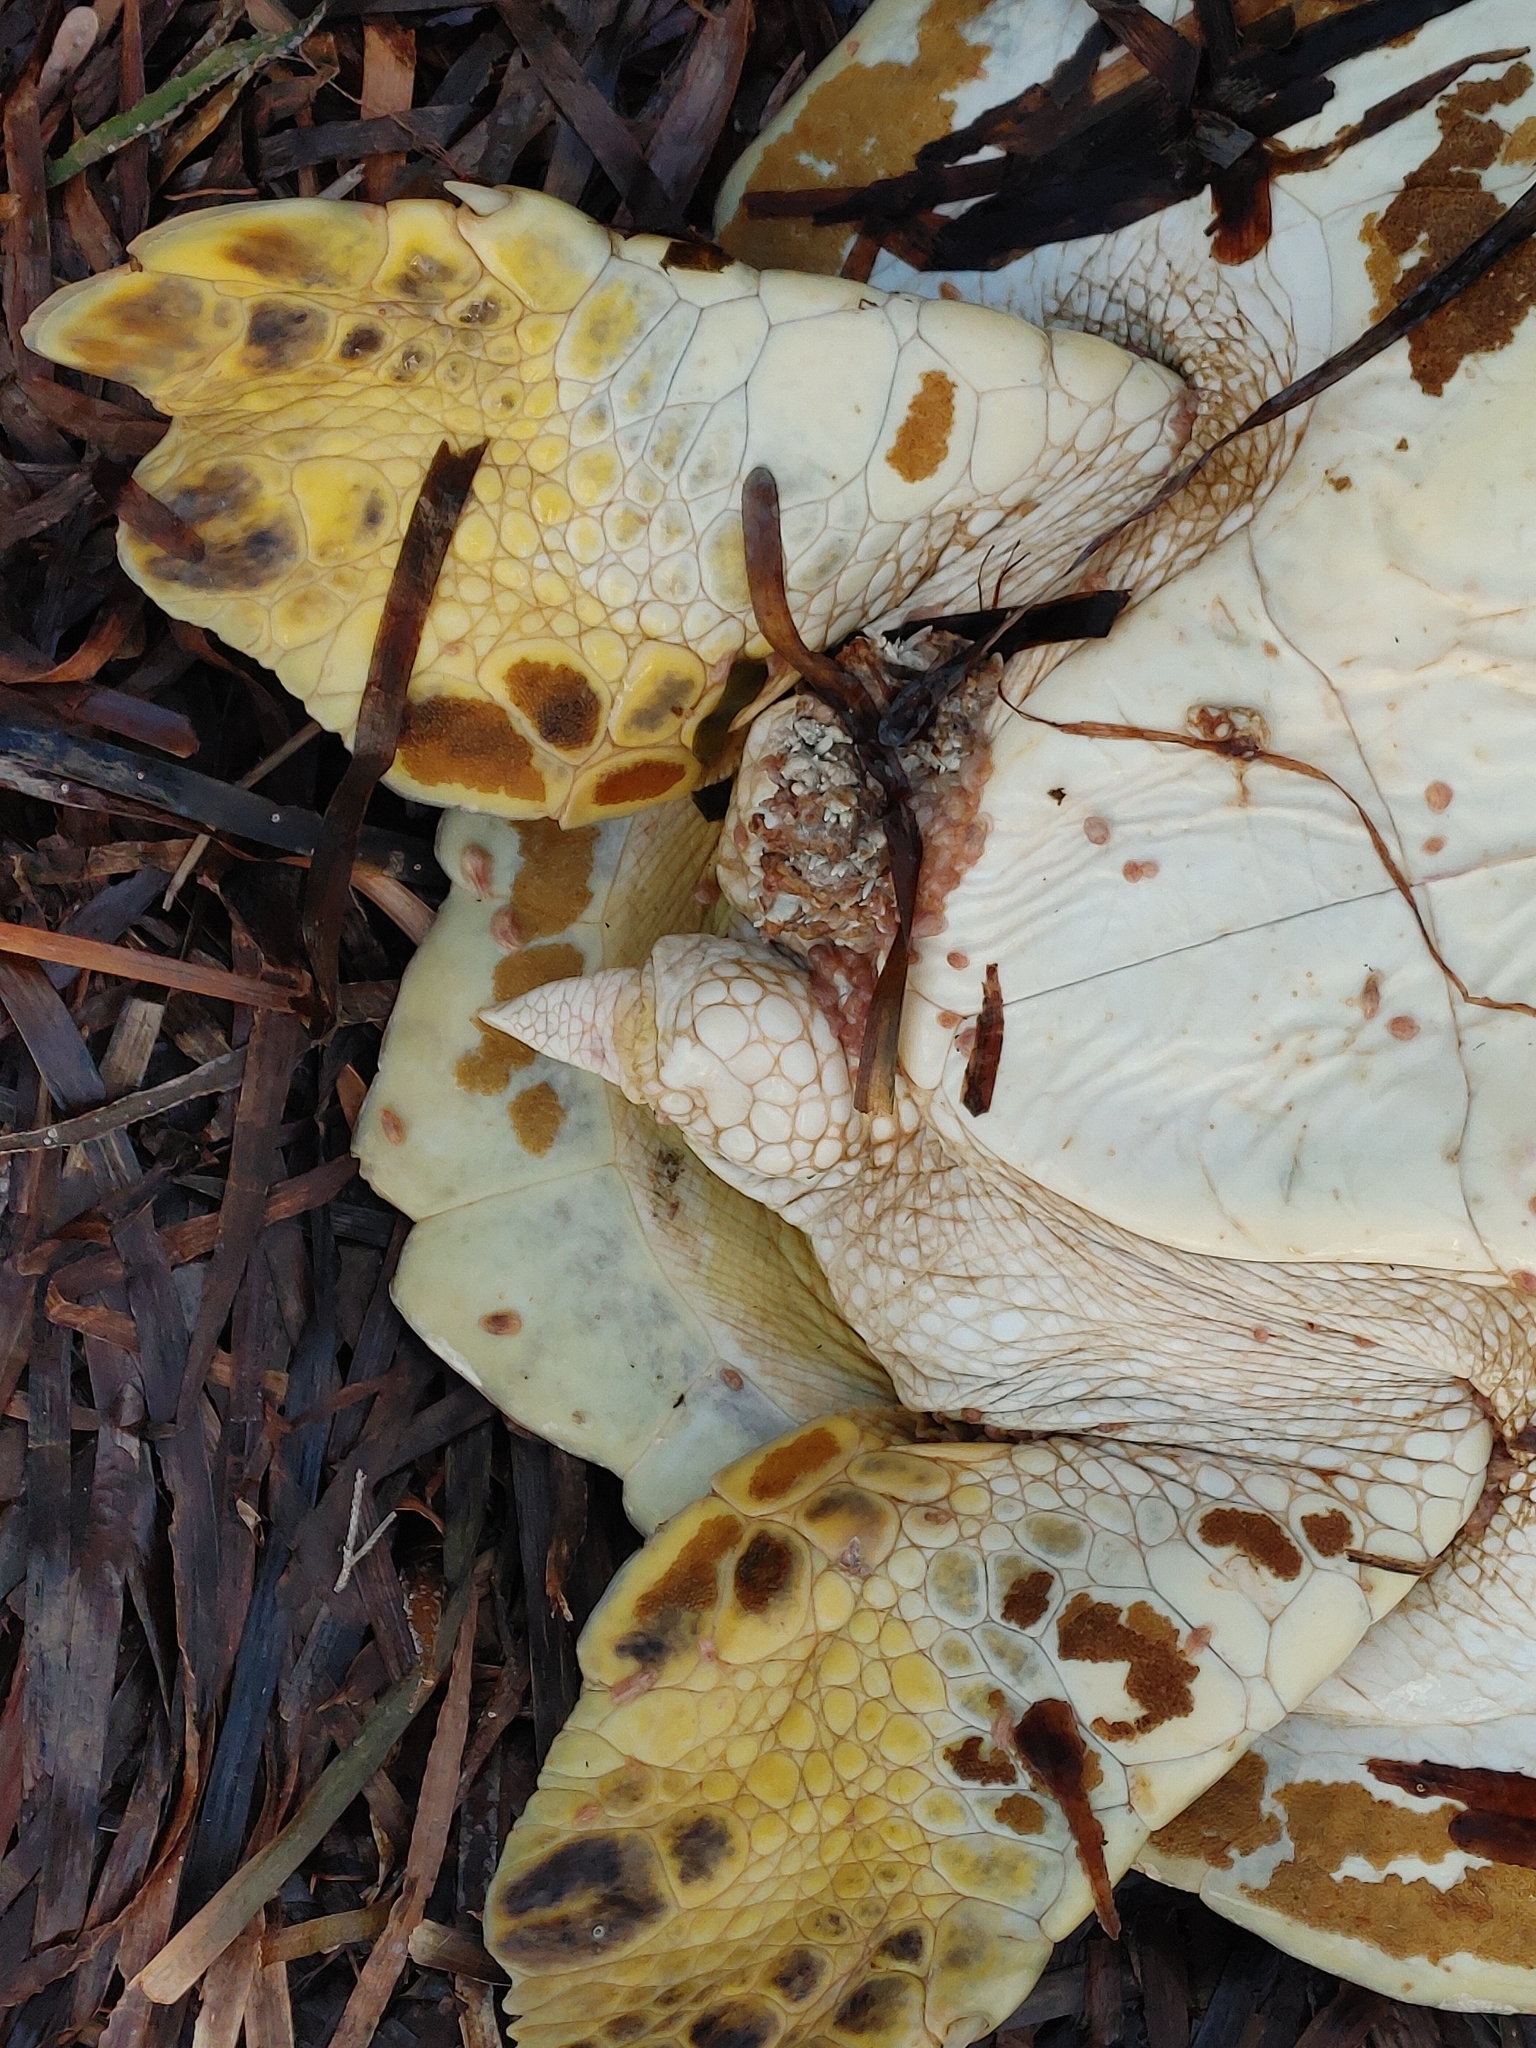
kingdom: Viruses
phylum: Peploviricota
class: Herviviricetes
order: Herpesvirales
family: Herpesviridae
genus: Scutavirus
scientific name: Scutavirus
